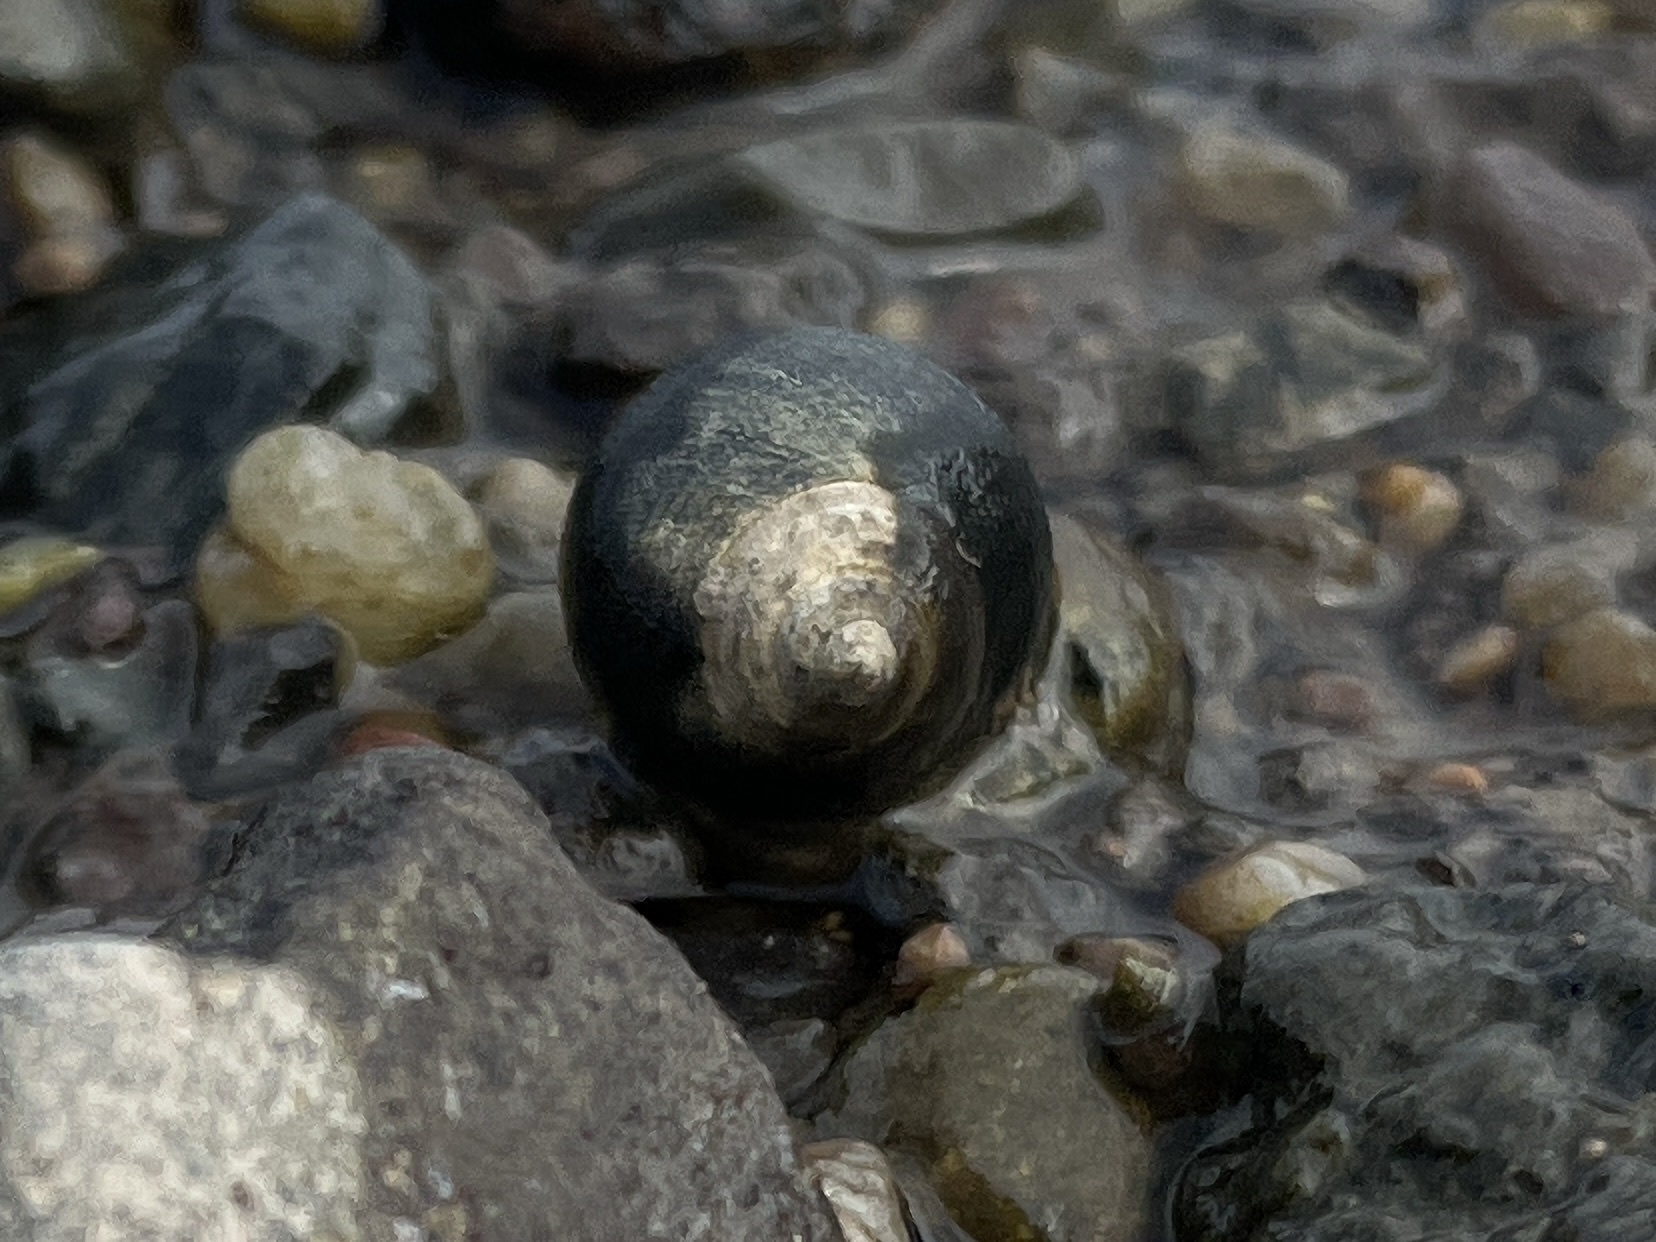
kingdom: Animalia
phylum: Mollusca
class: Gastropoda
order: Littorinimorpha
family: Littorinidae
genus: Littorina
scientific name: Littorina littorea
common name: Common periwinkle
